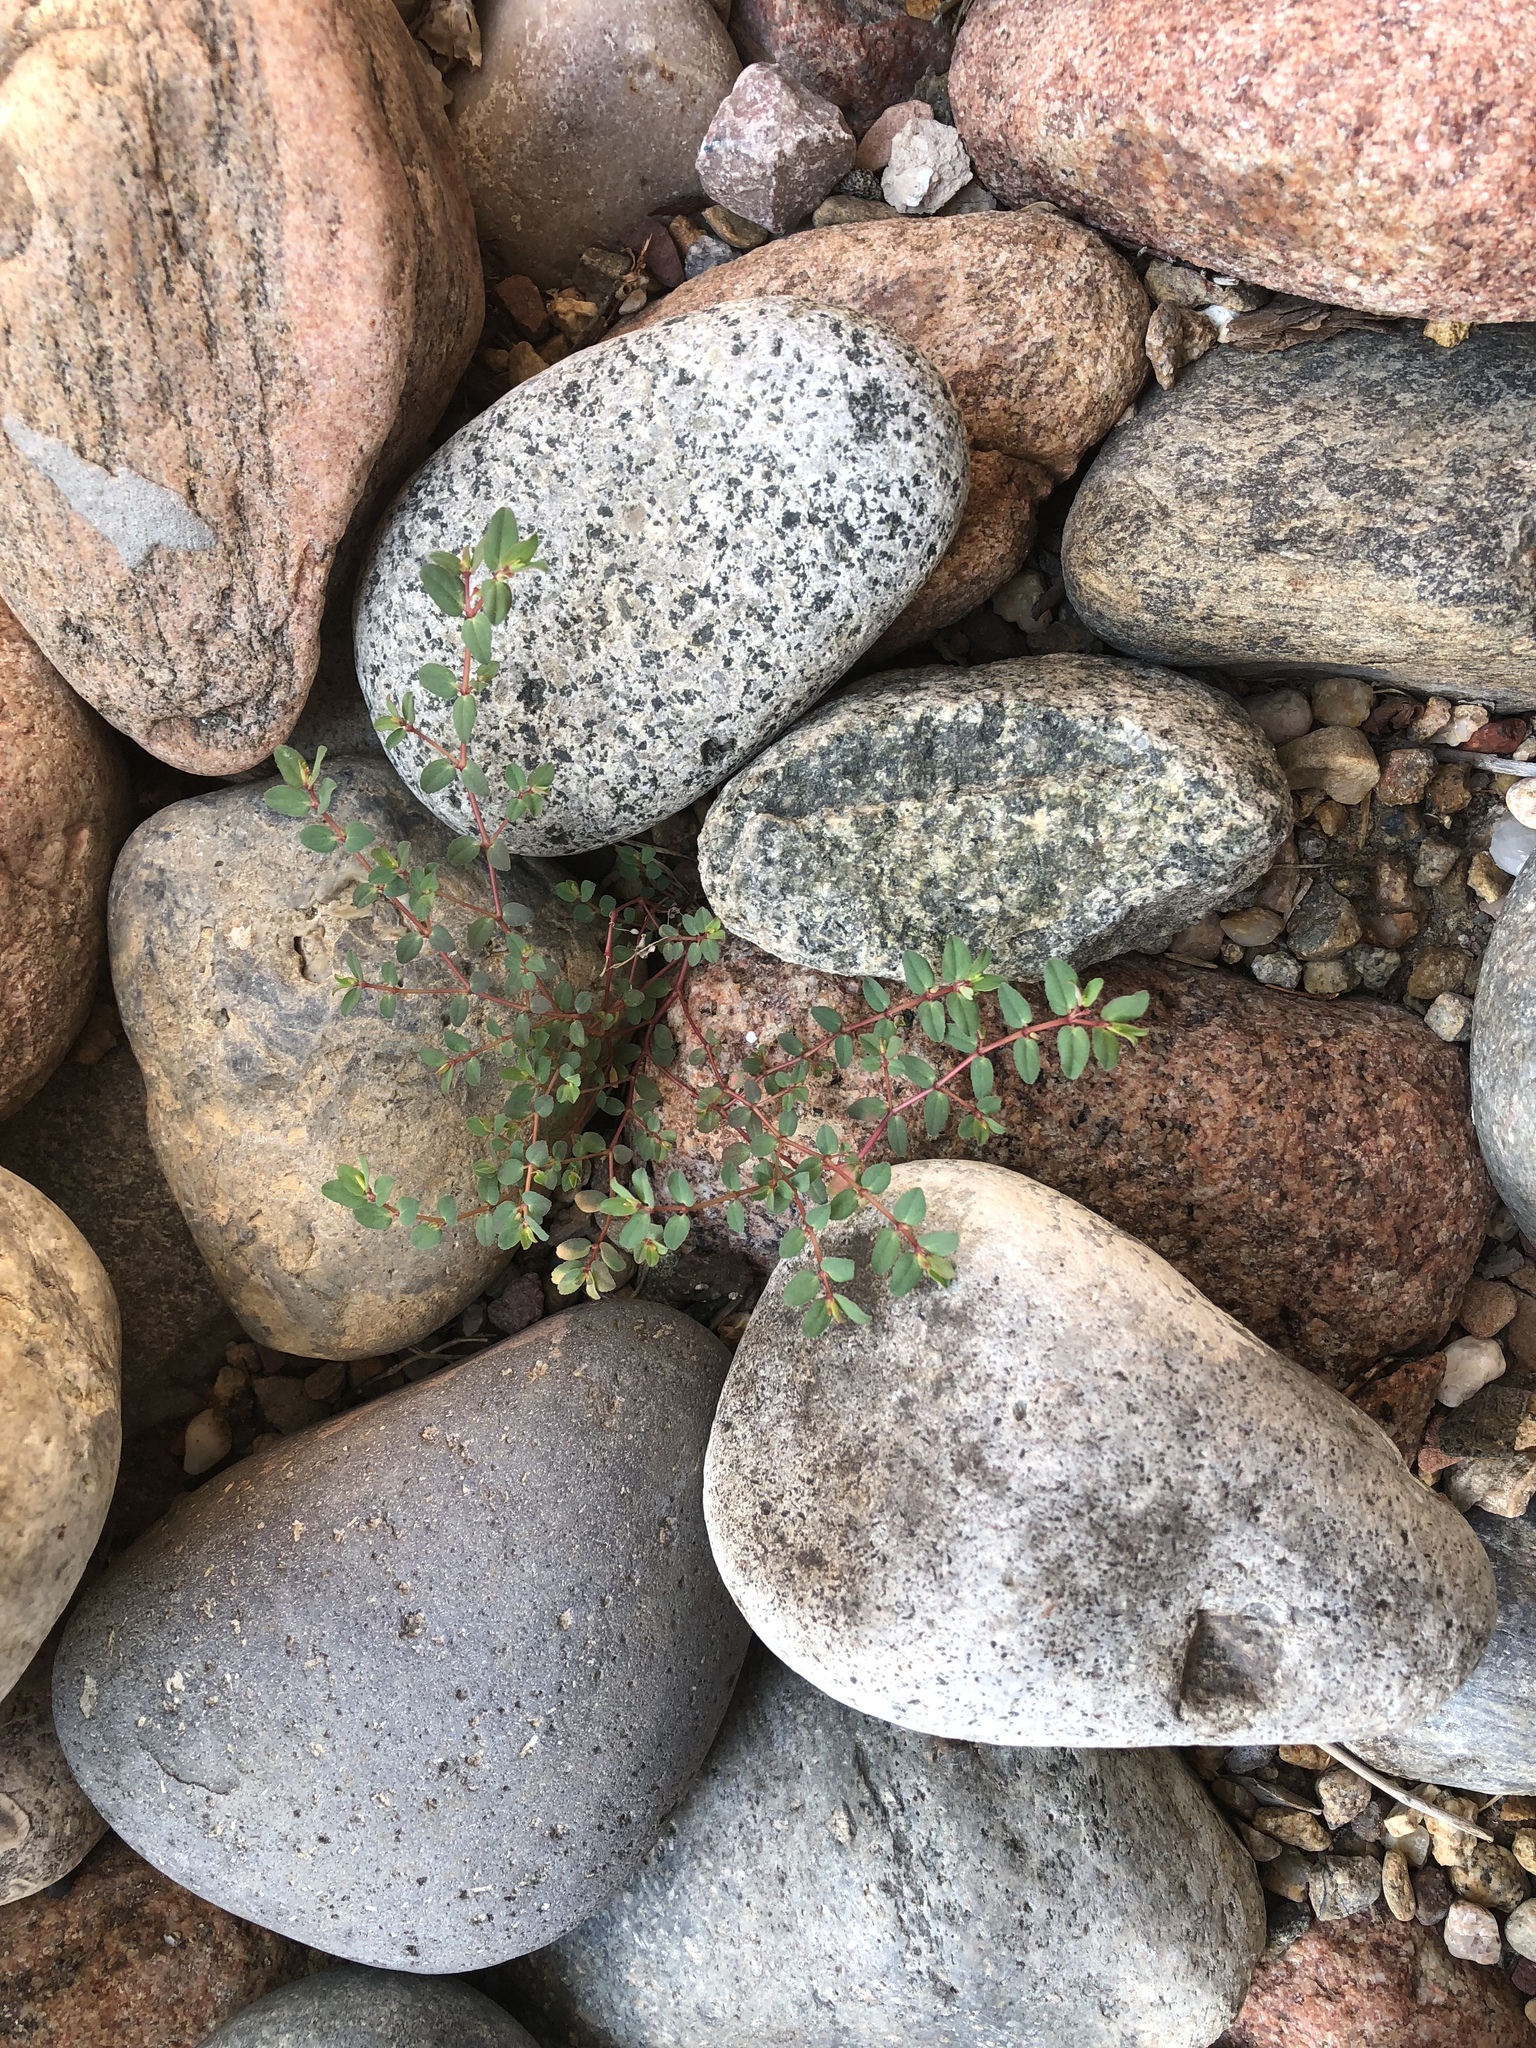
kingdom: Plantae
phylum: Tracheophyta
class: Magnoliopsida
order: Malpighiales
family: Euphorbiaceae
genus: Euphorbia
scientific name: Euphorbia vermiculata
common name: Hairy spurge
